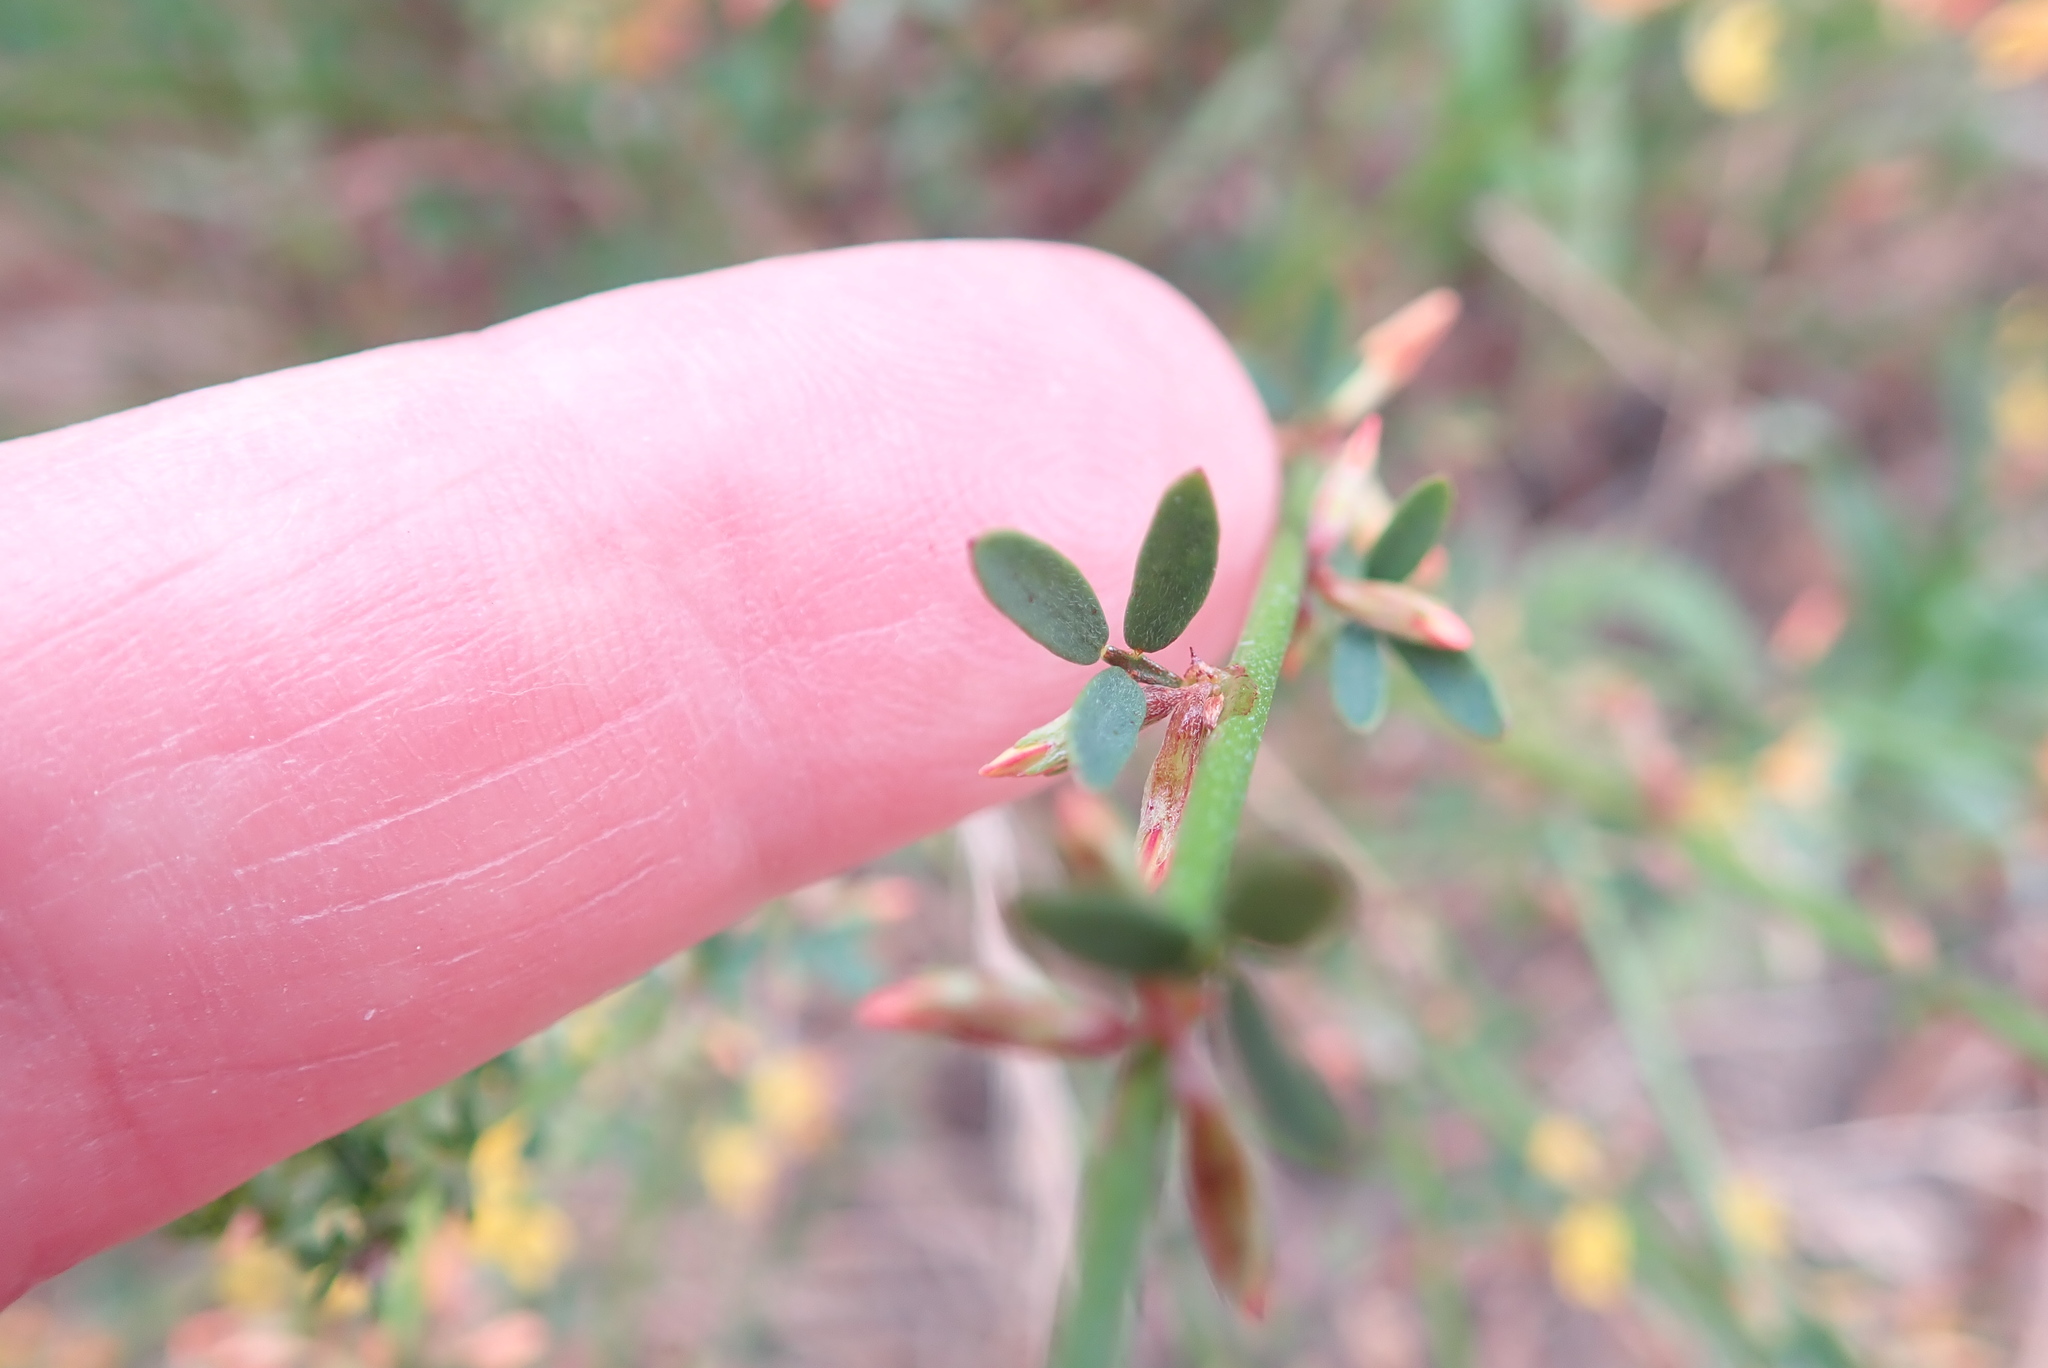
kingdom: Plantae
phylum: Tracheophyta
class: Magnoliopsida
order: Fabales
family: Fabaceae
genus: Acmispon
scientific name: Acmispon glaber
